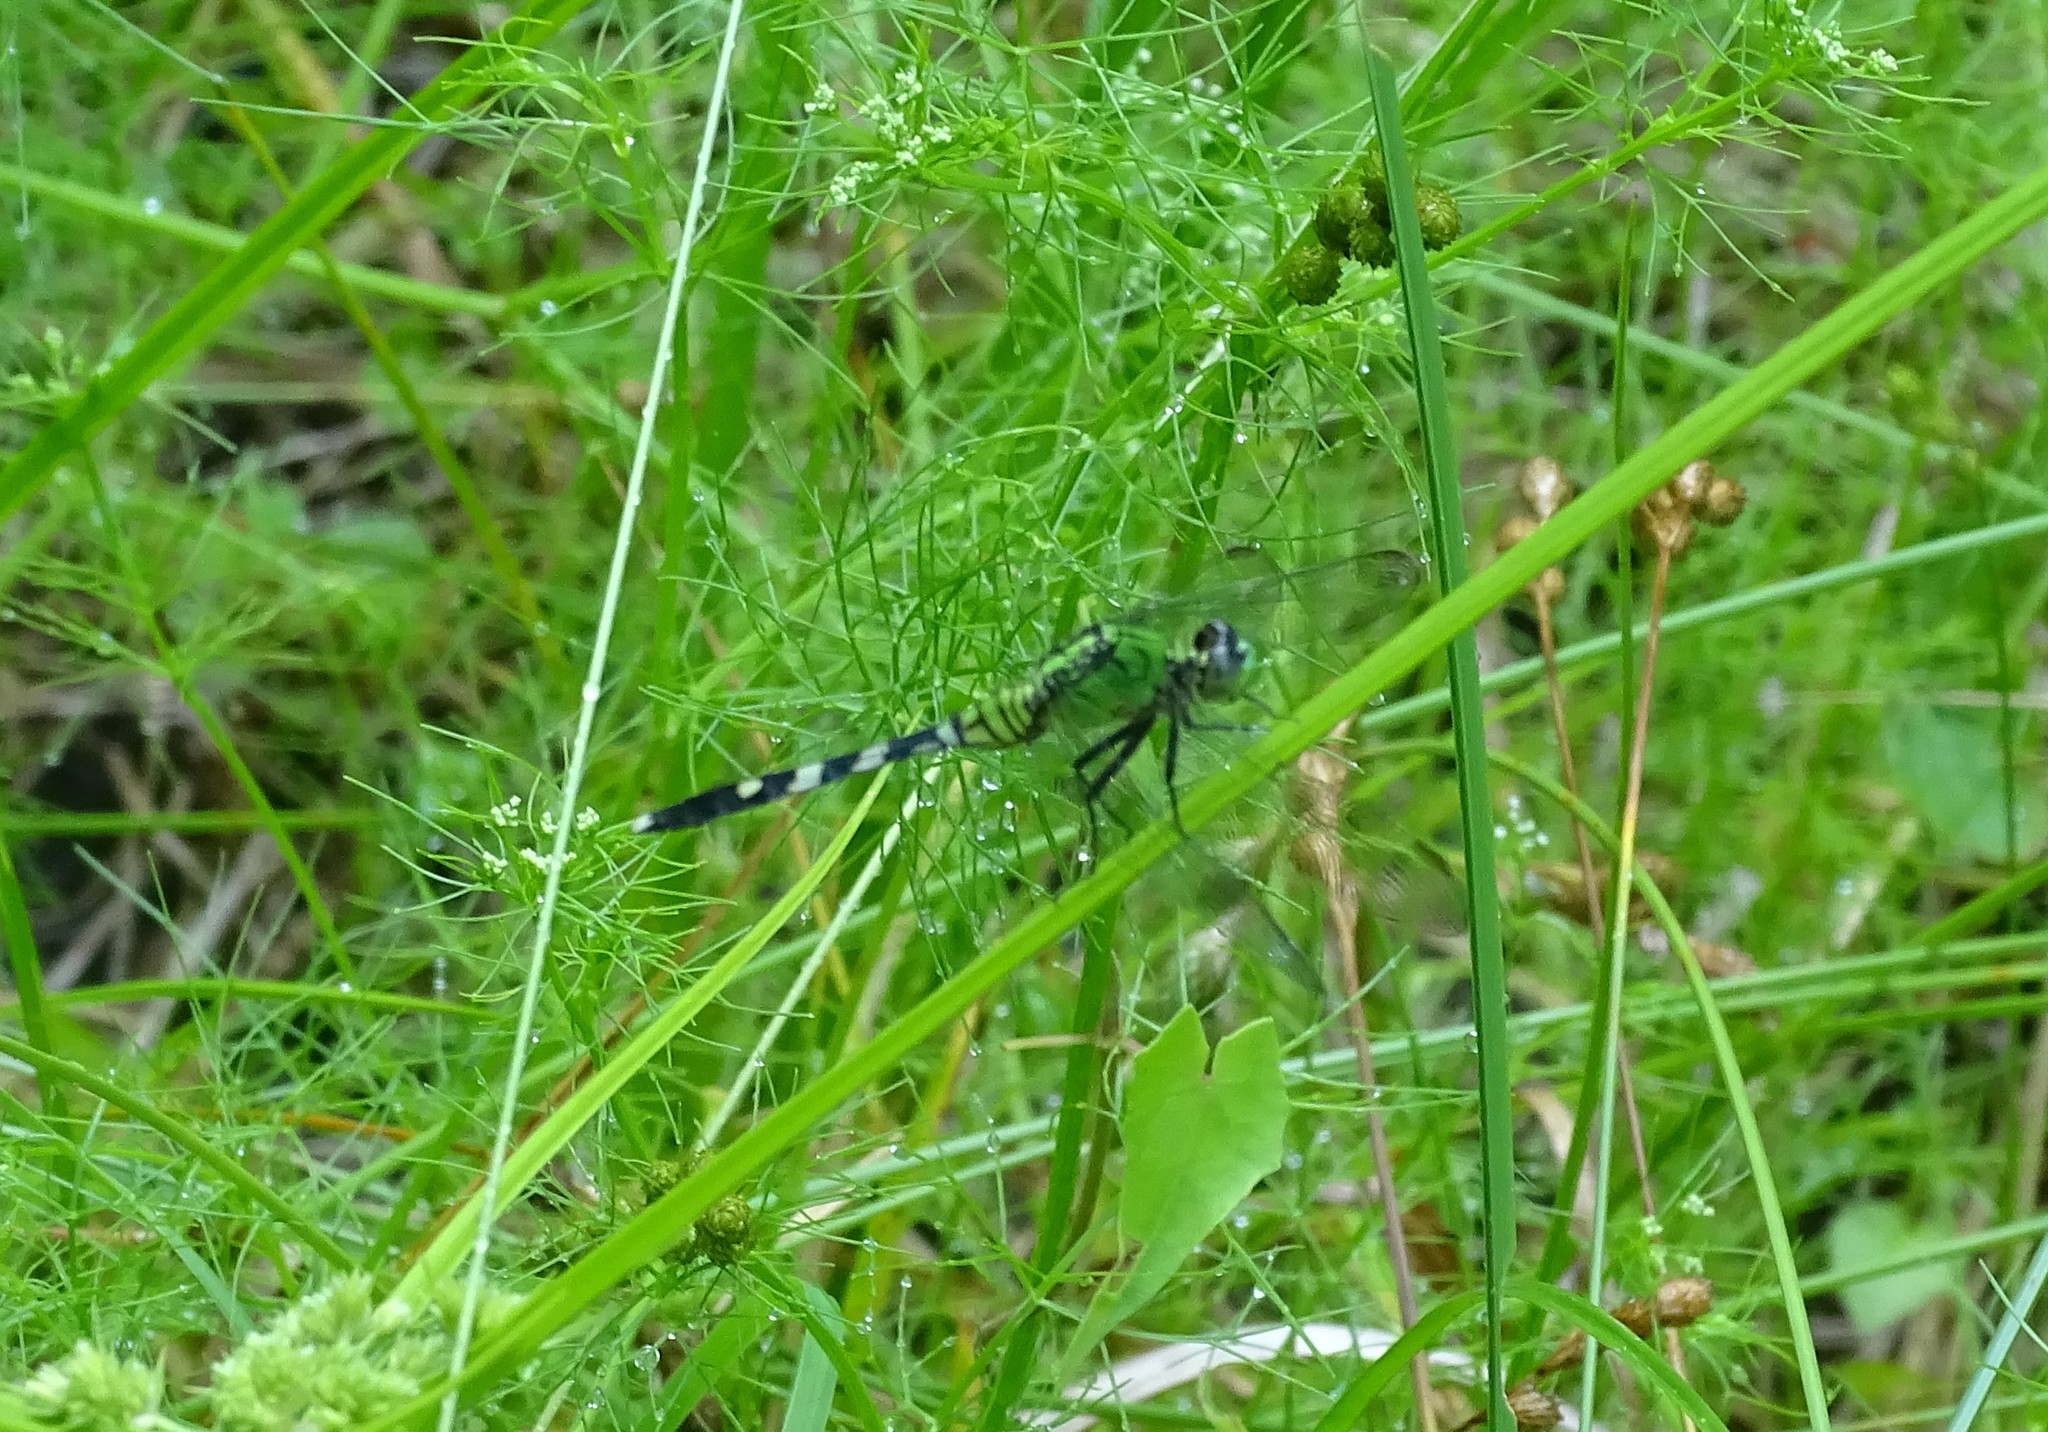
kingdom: Animalia
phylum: Arthropoda
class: Insecta
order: Odonata
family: Libellulidae
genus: Erythemis
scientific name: Erythemis simplicicollis
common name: Eastern pondhawk
